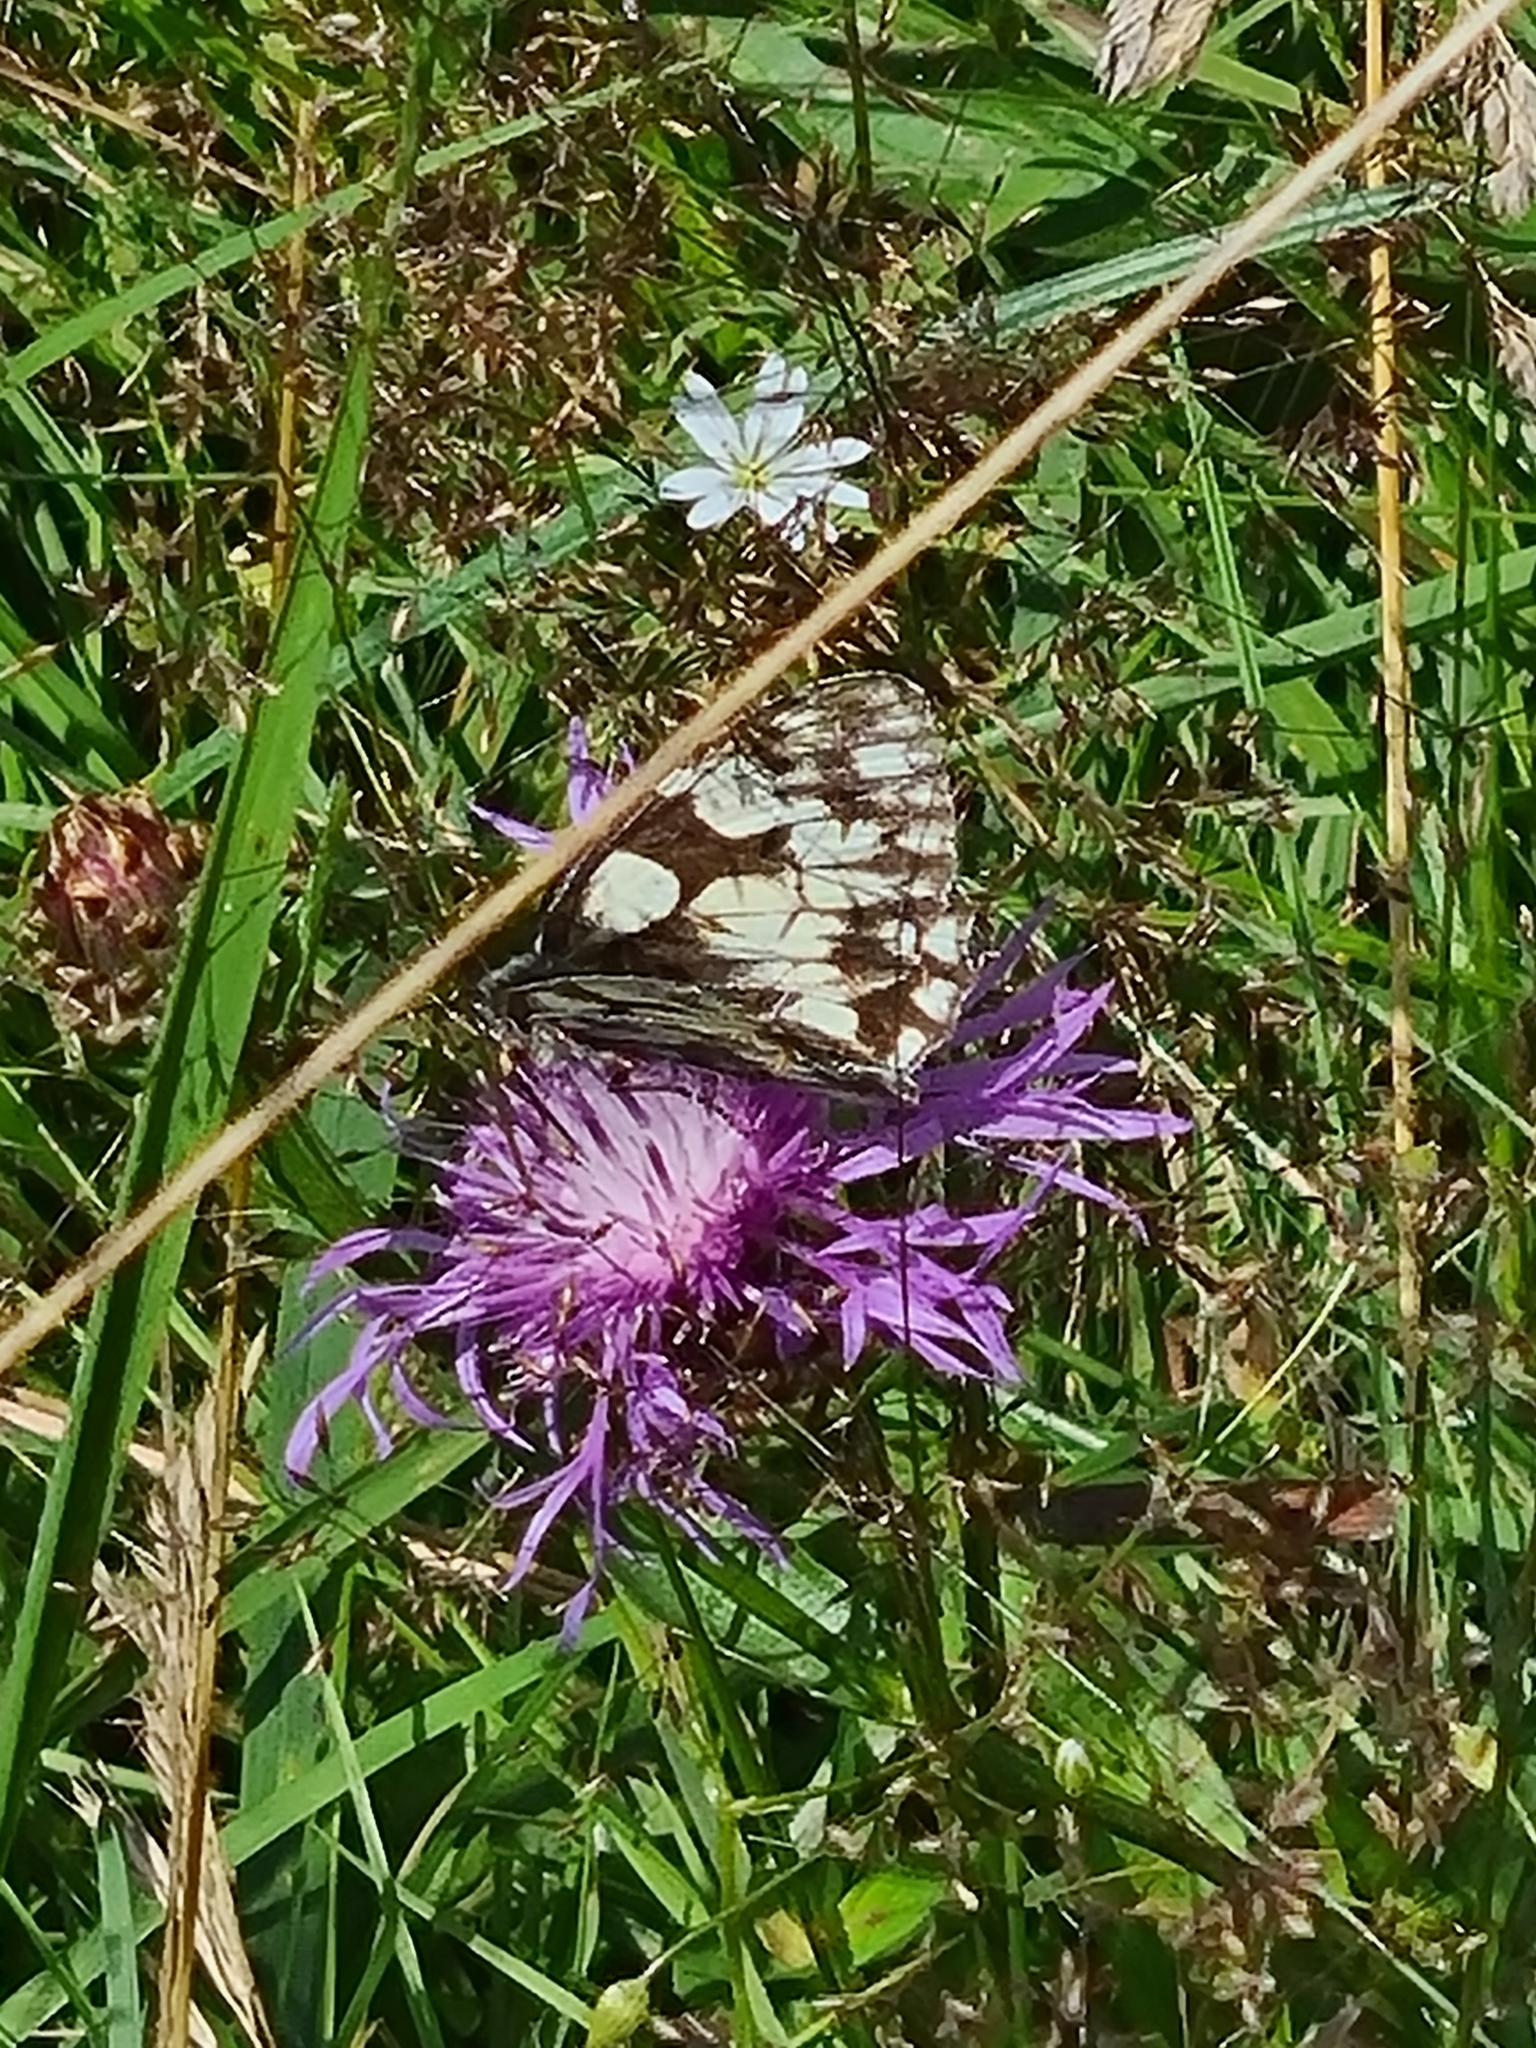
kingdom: Animalia
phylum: Arthropoda
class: Insecta
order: Lepidoptera
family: Nymphalidae
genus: Melanargia
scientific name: Melanargia galathea
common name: Marbled white
